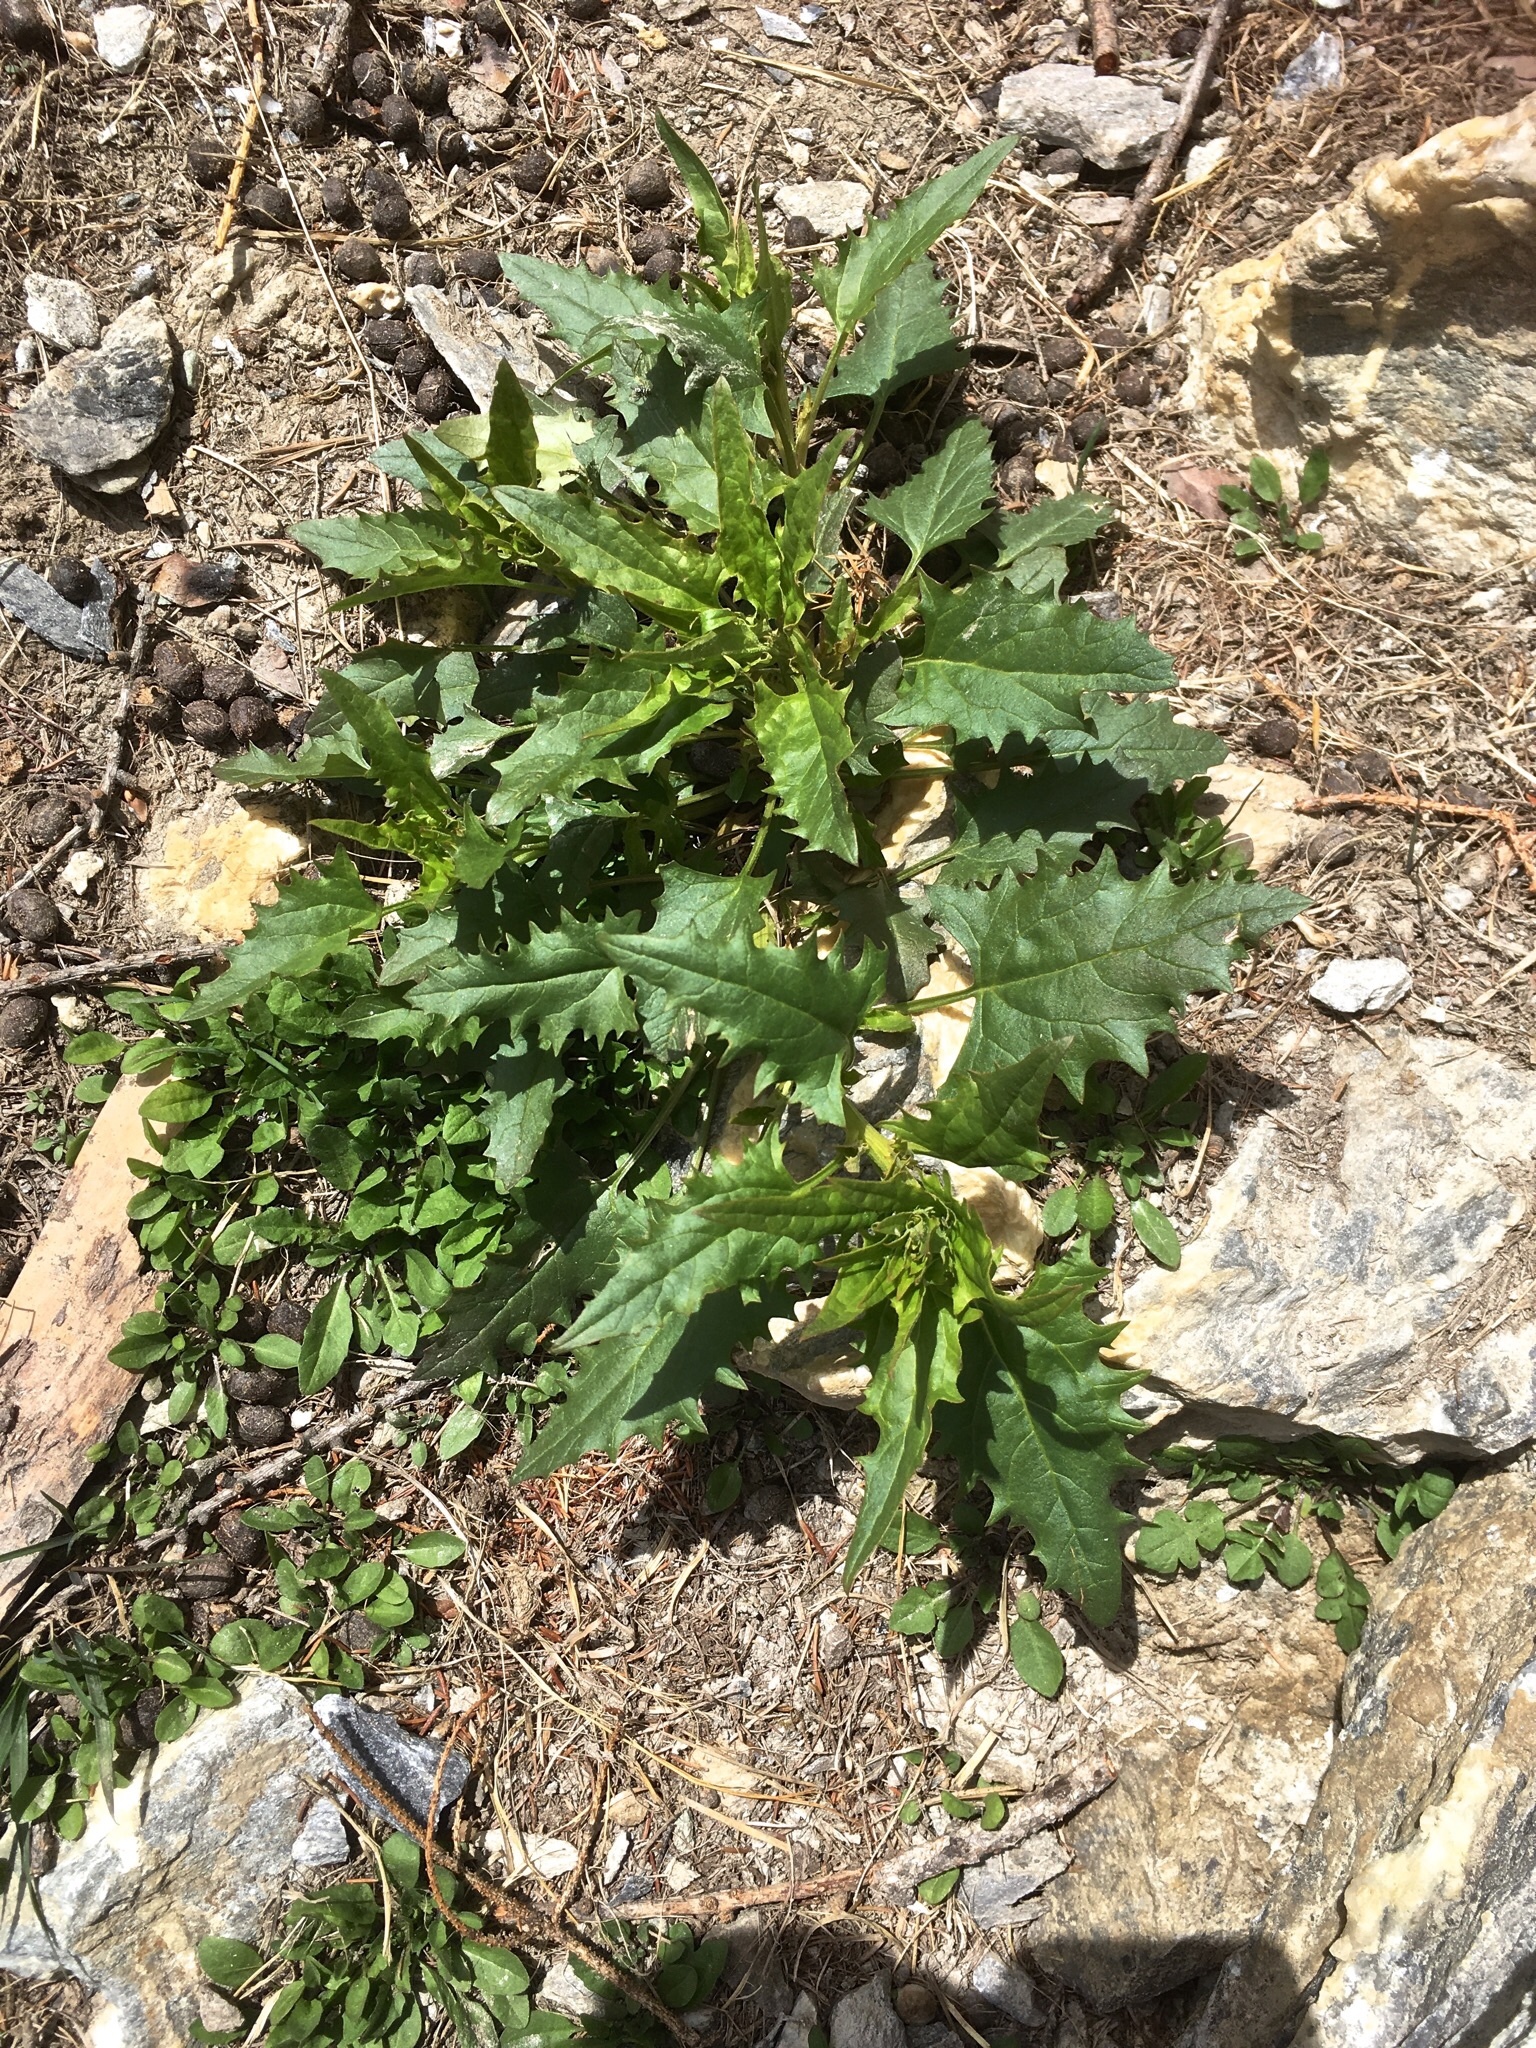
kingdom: Plantae
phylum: Tracheophyta
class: Magnoliopsida
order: Caryophyllales
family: Amaranthaceae
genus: Blitum
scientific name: Blitum virgatum
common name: Strawberry goosefoot
